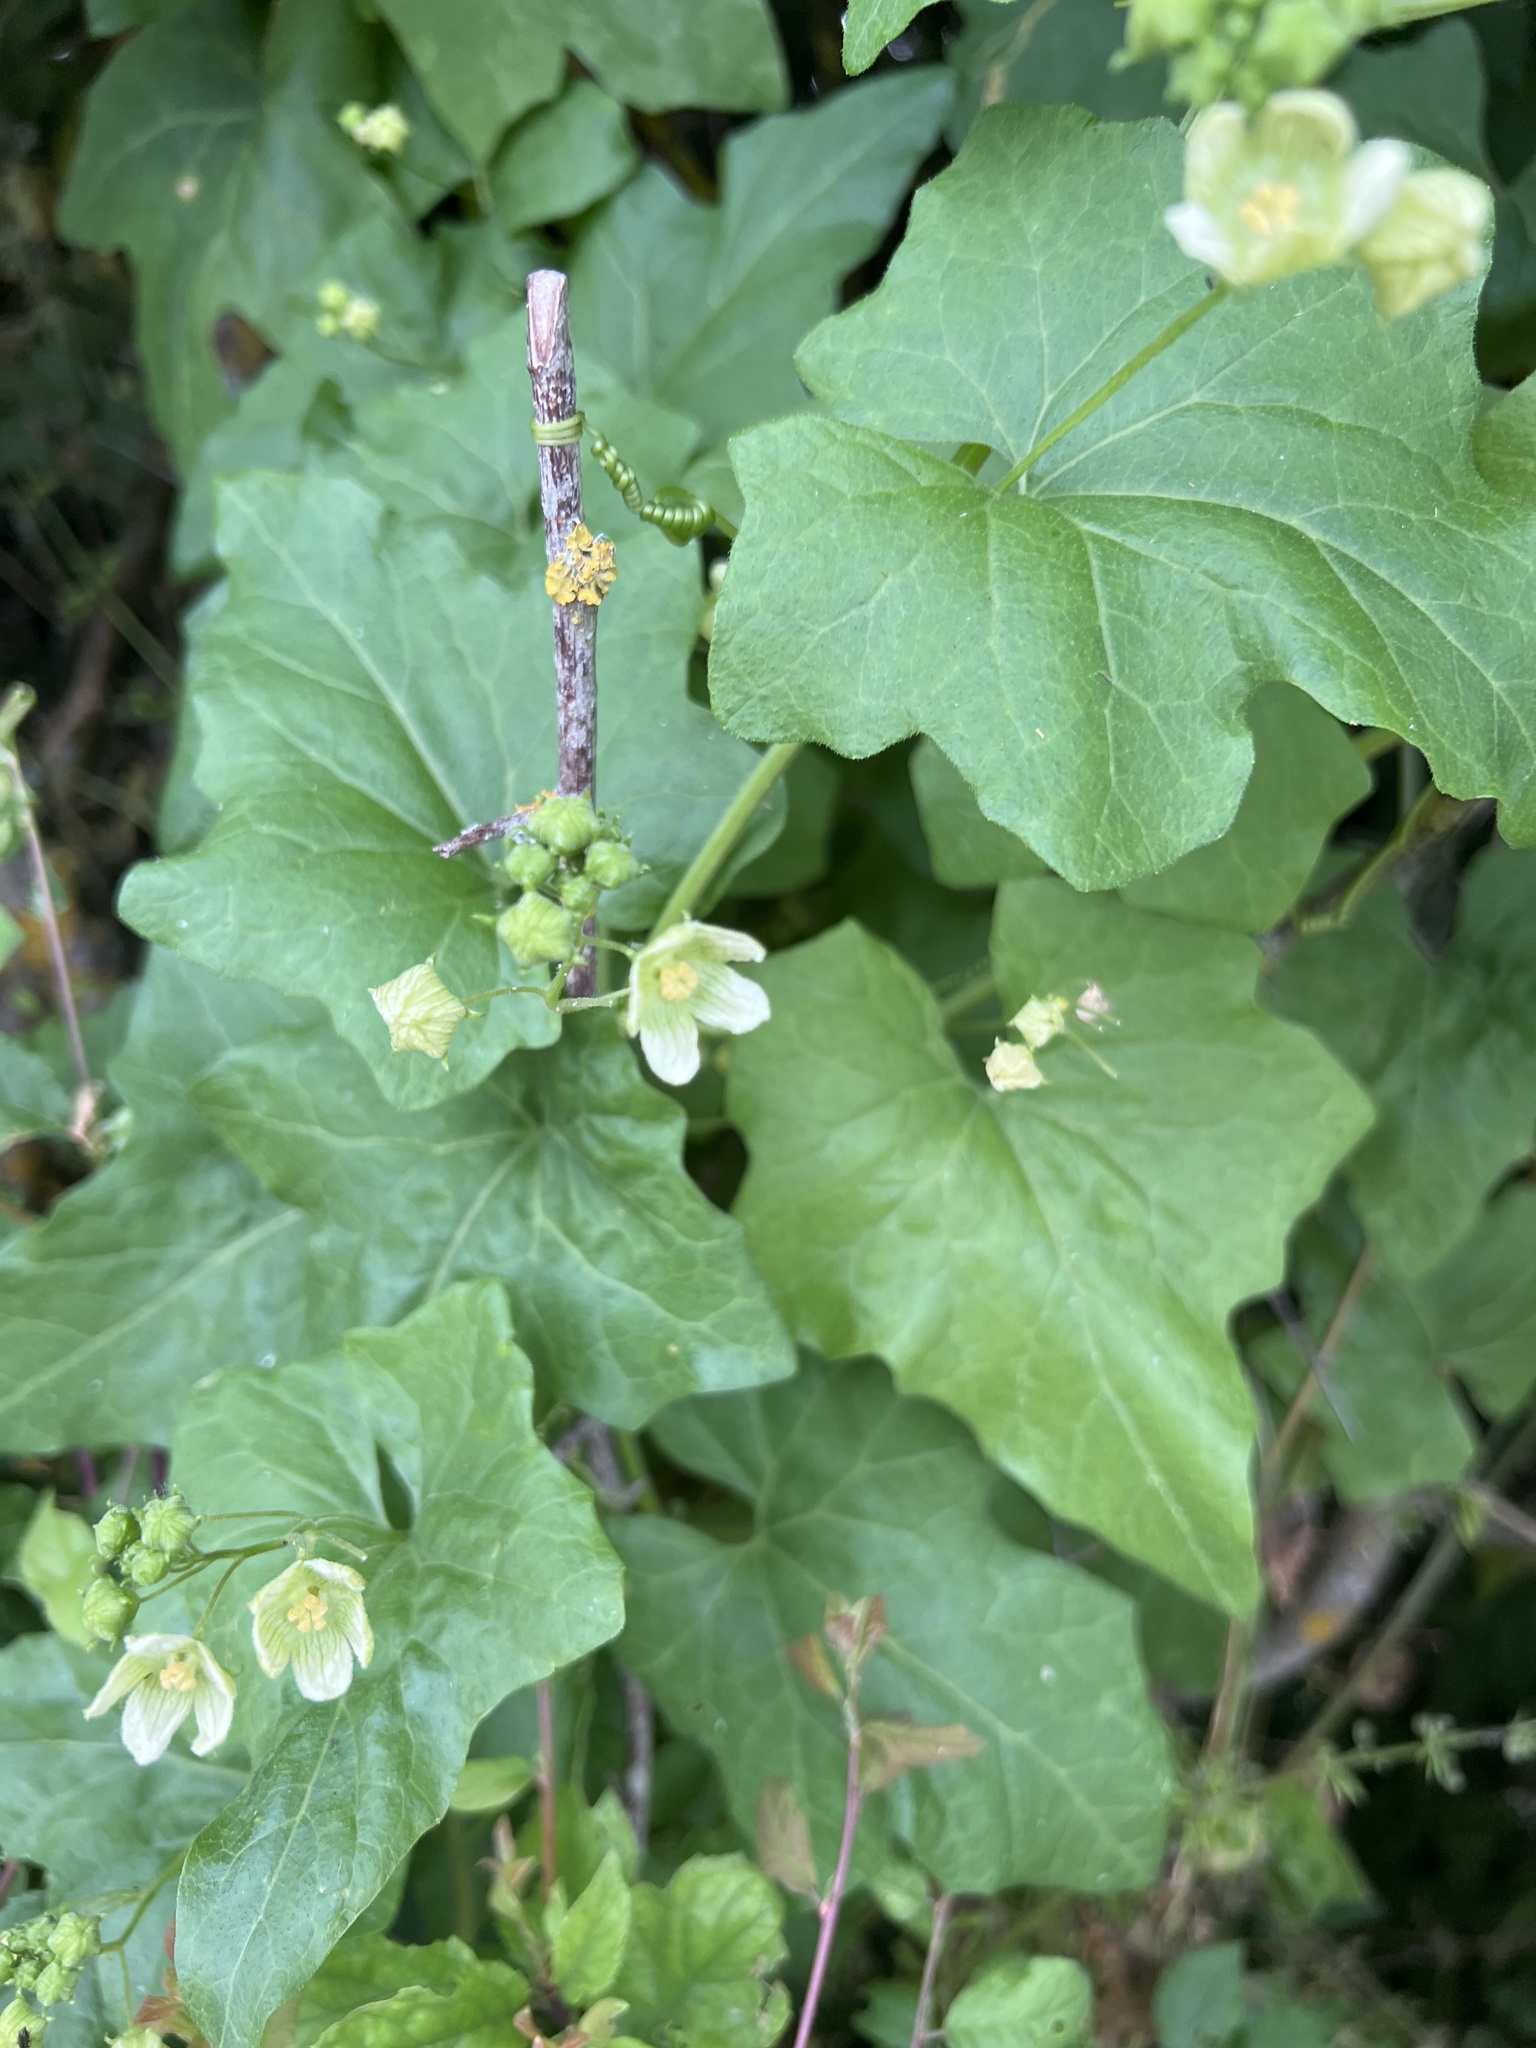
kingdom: Plantae
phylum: Tracheophyta
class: Magnoliopsida
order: Cucurbitales
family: Cucurbitaceae
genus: Bryonia
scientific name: Bryonia cretica
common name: Cretan bryony
